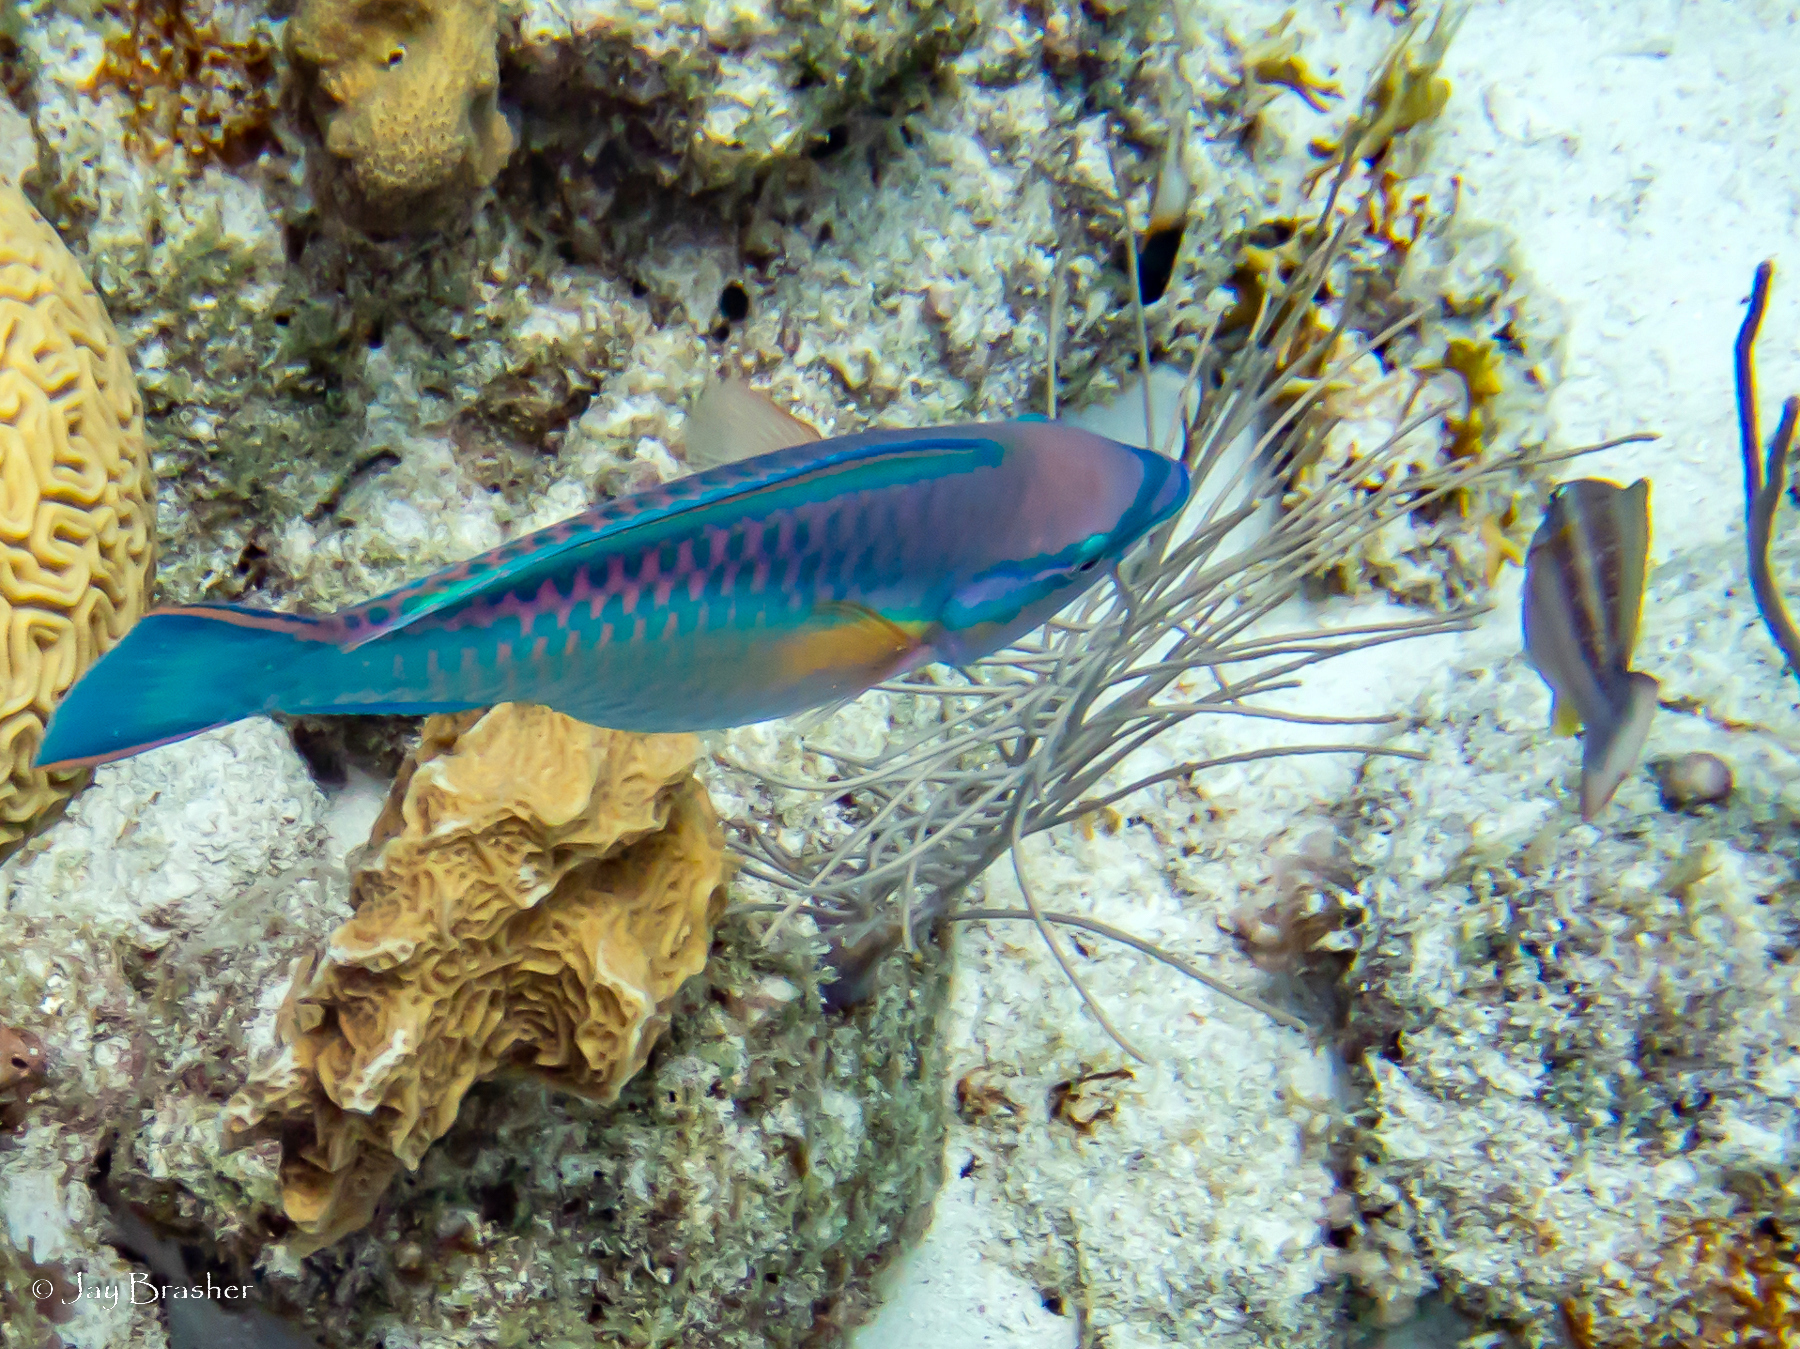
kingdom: Animalia
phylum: Chordata
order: Perciformes
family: Scaridae
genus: Scarus
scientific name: Scarus taeniopterus
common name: Princess parrotfish
